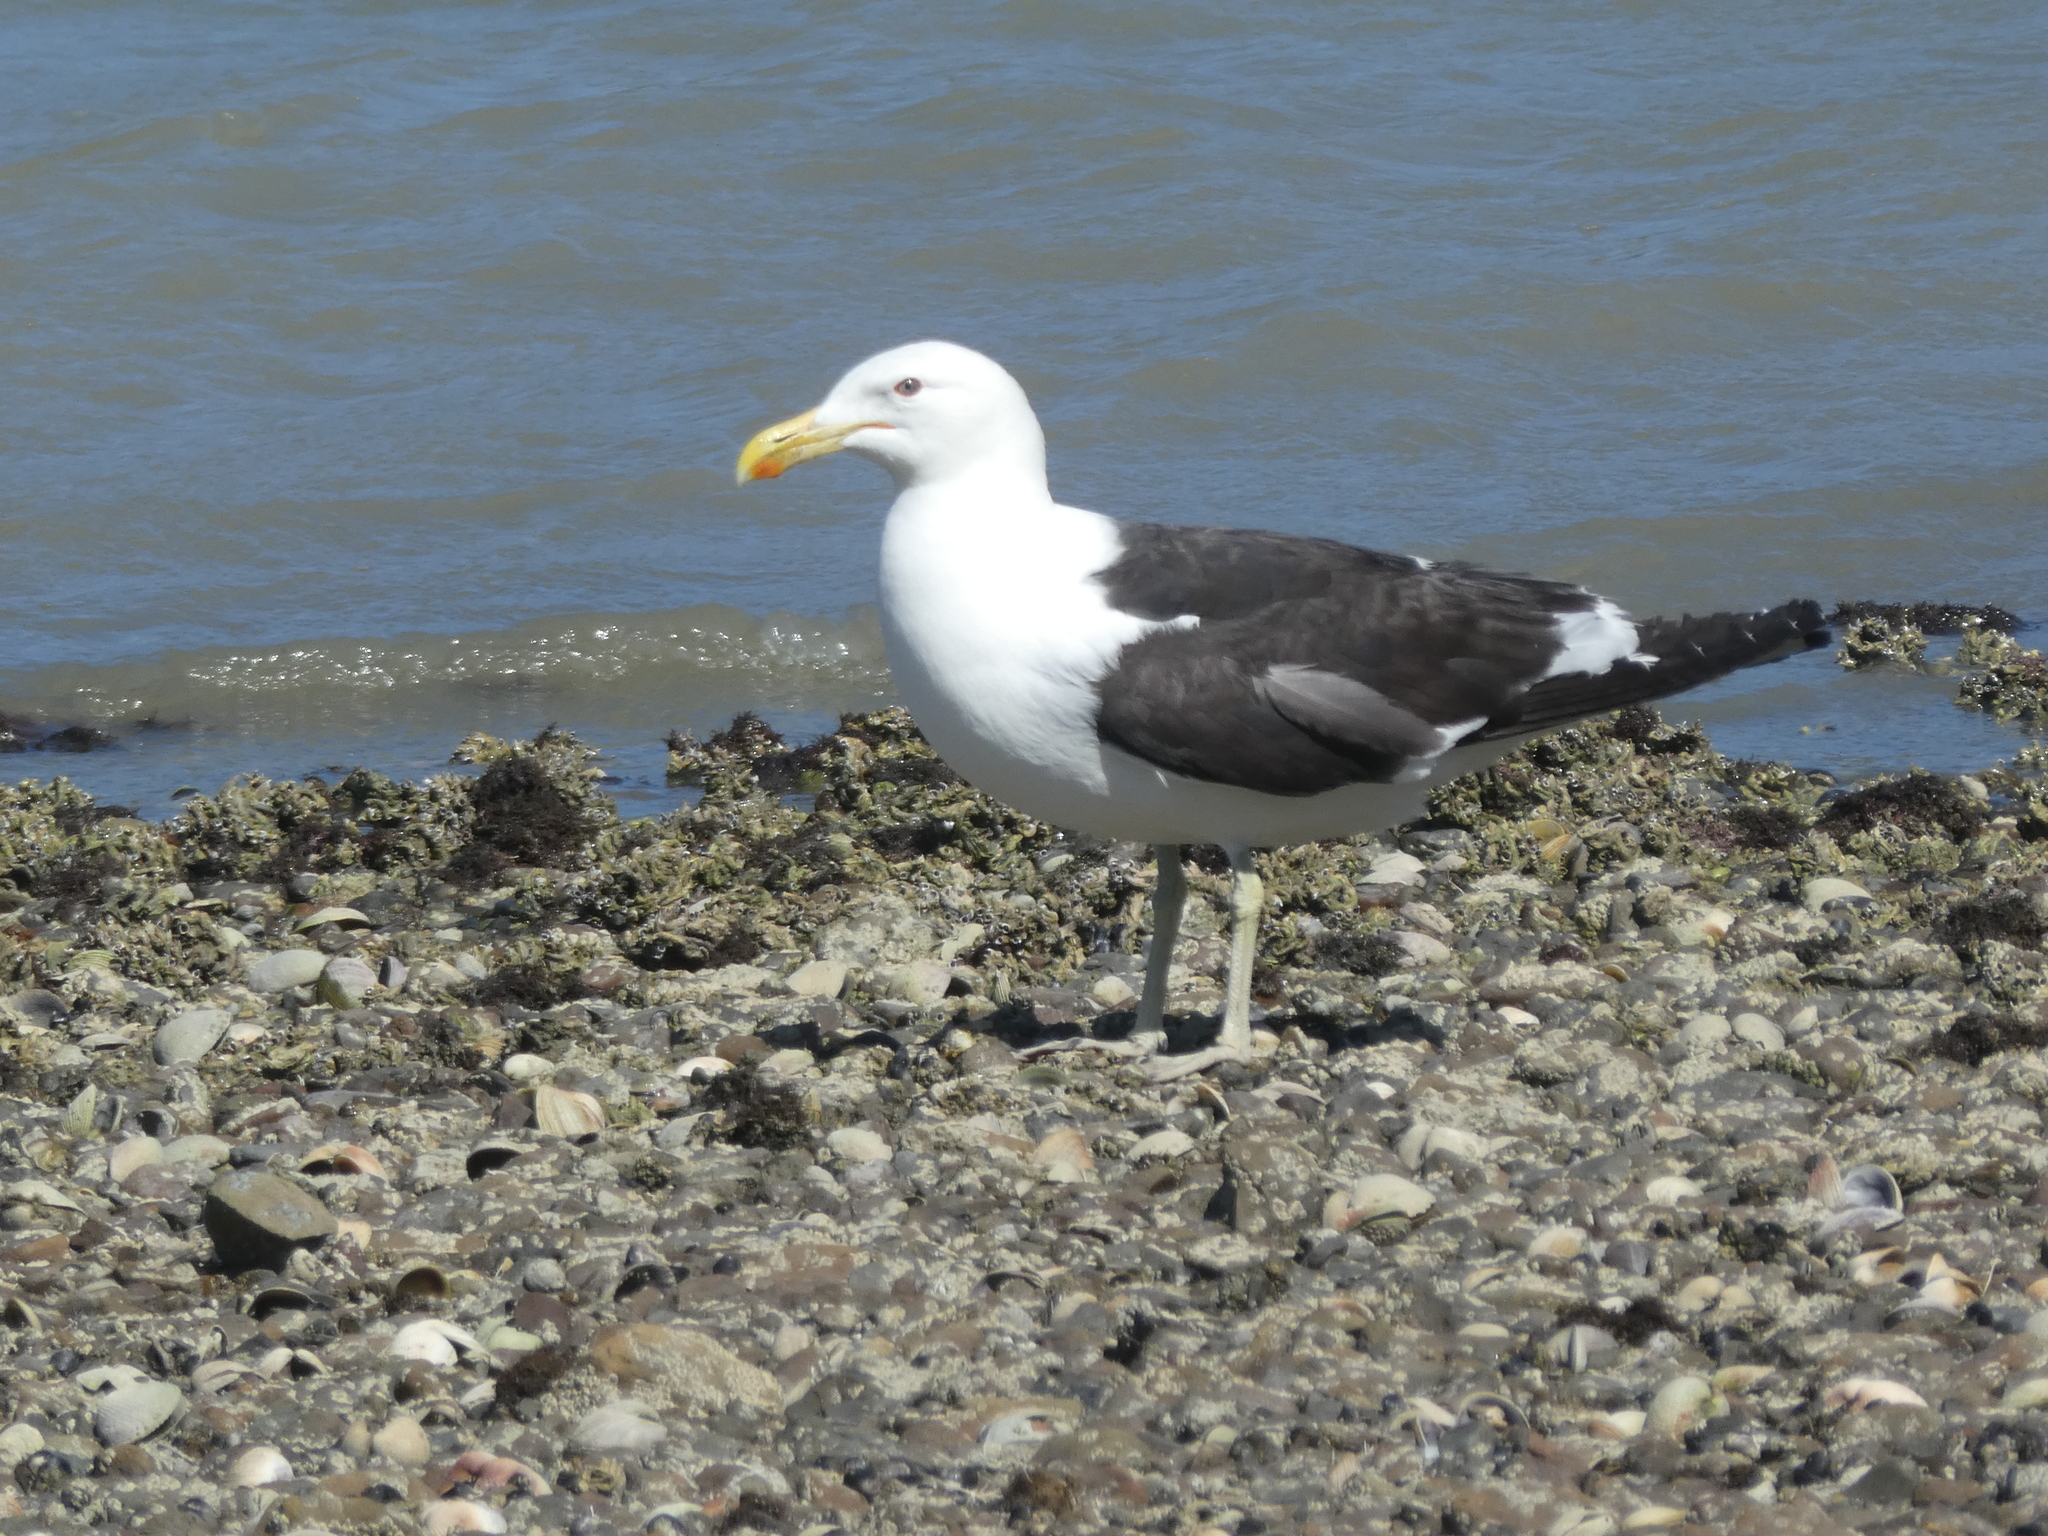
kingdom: Animalia
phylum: Chordata
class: Aves
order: Charadriiformes
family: Laridae
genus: Larus
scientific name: Larus dominicanus
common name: Kelp gull
